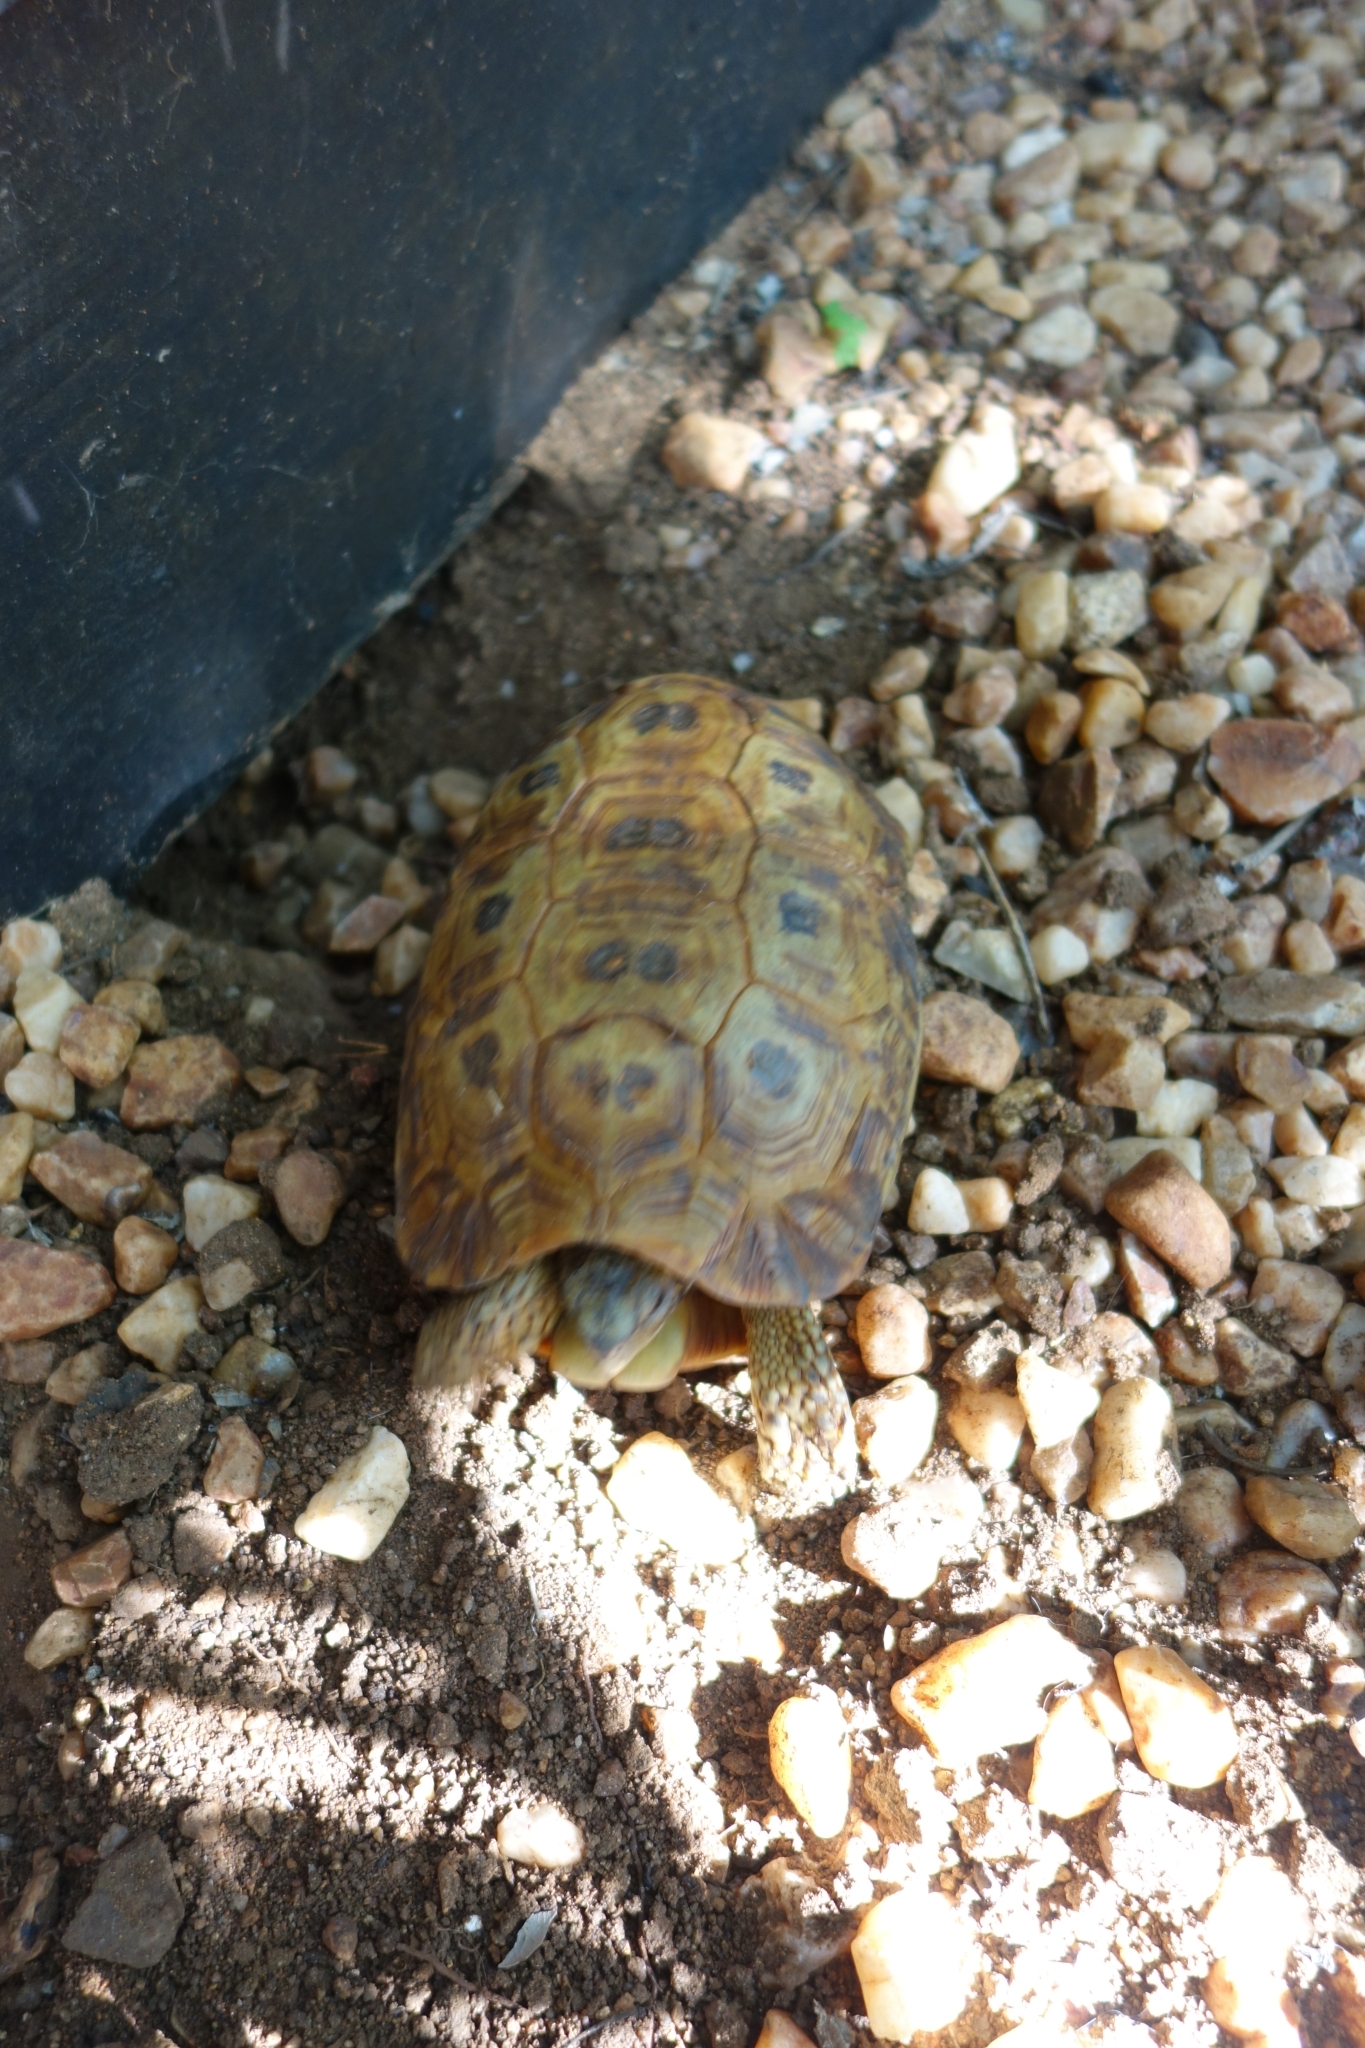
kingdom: Animalia
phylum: Chordata
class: Testudines
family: Testudinidae
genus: Kinixys
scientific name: Kinixys spekii
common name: Speke's hingeback tortoise
